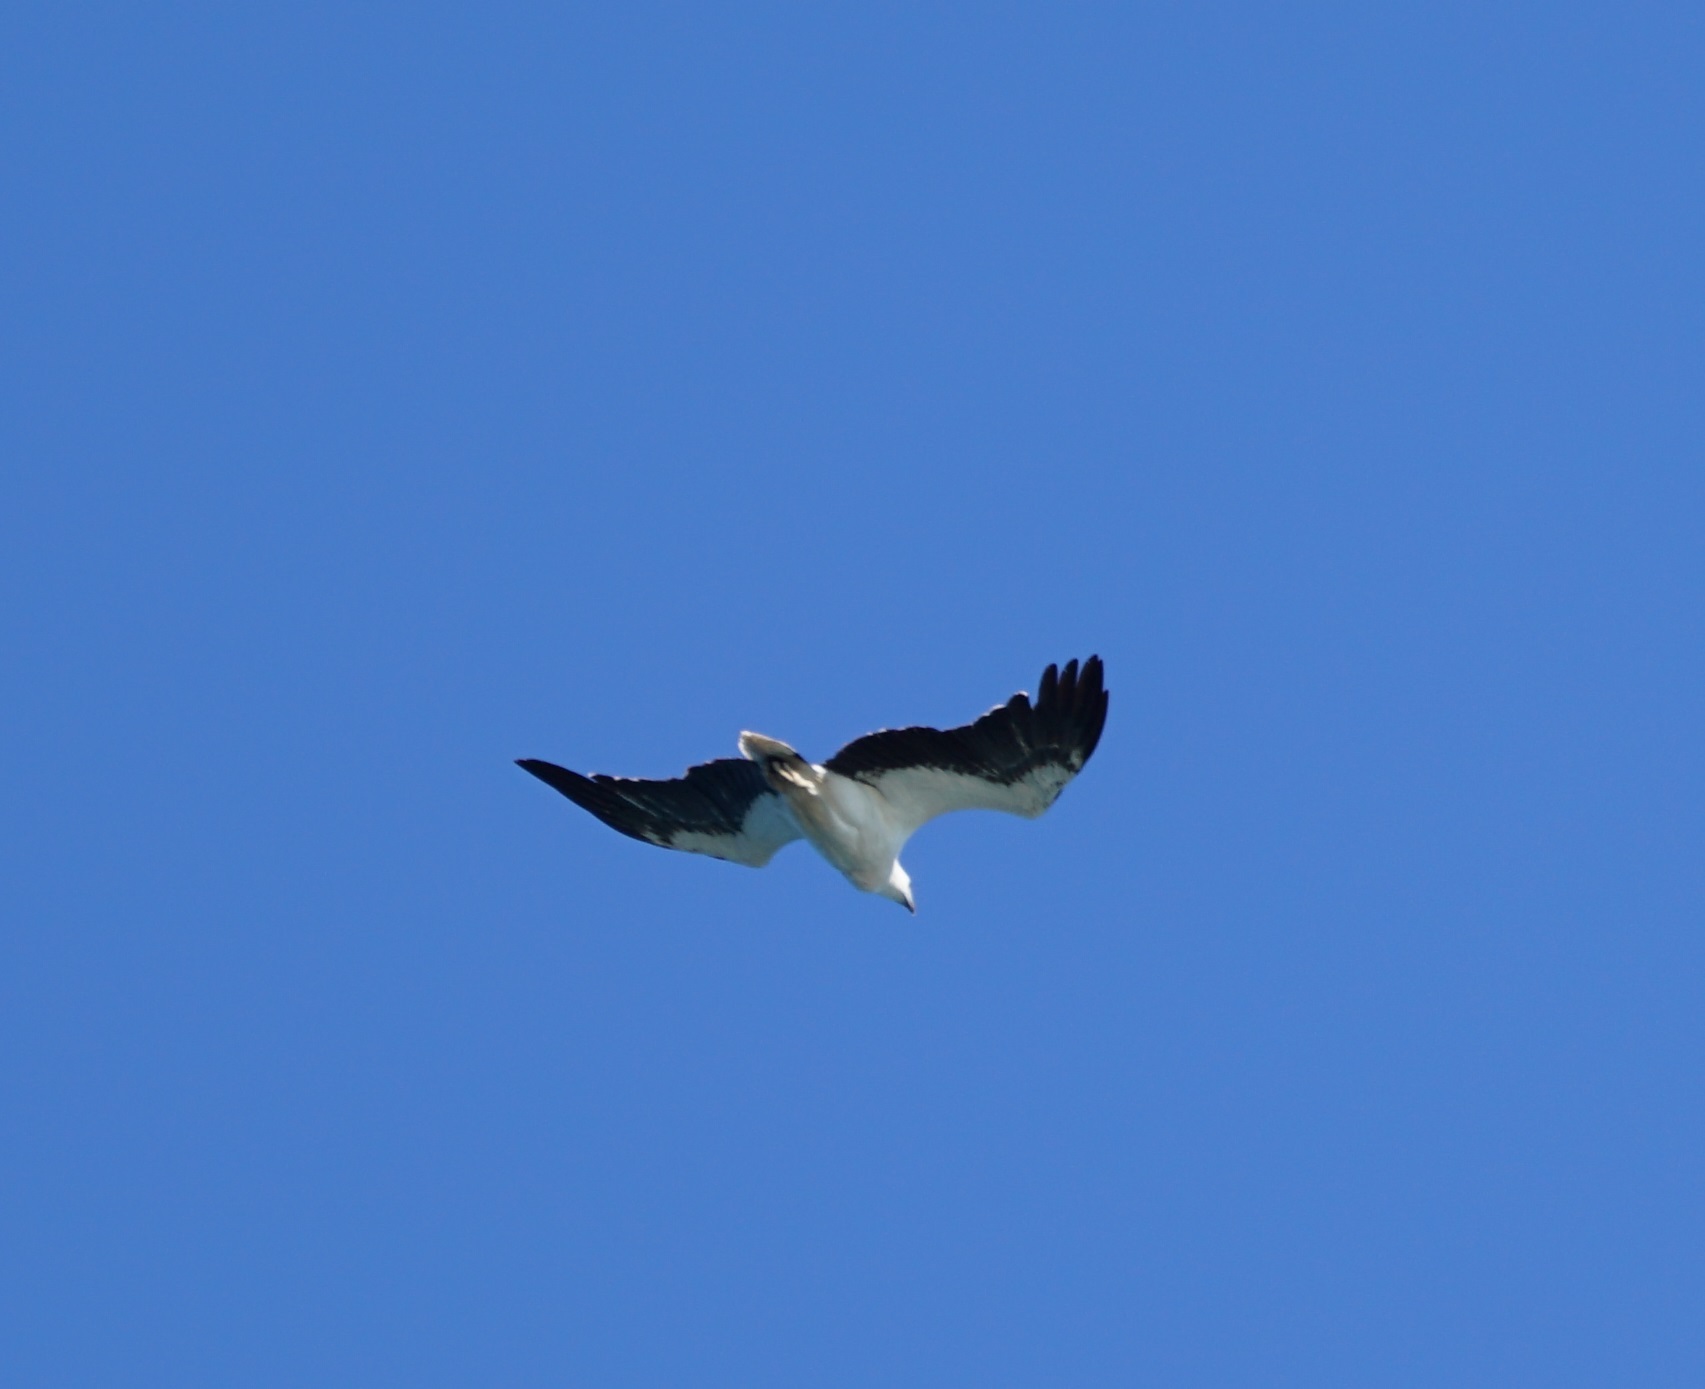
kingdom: Animalia
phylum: Chordata
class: Aves
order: Accipitriformes
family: Accipitridae
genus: Haliaeetus
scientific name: Haliaeetus leucogaster
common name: White-bellied sea eagle
